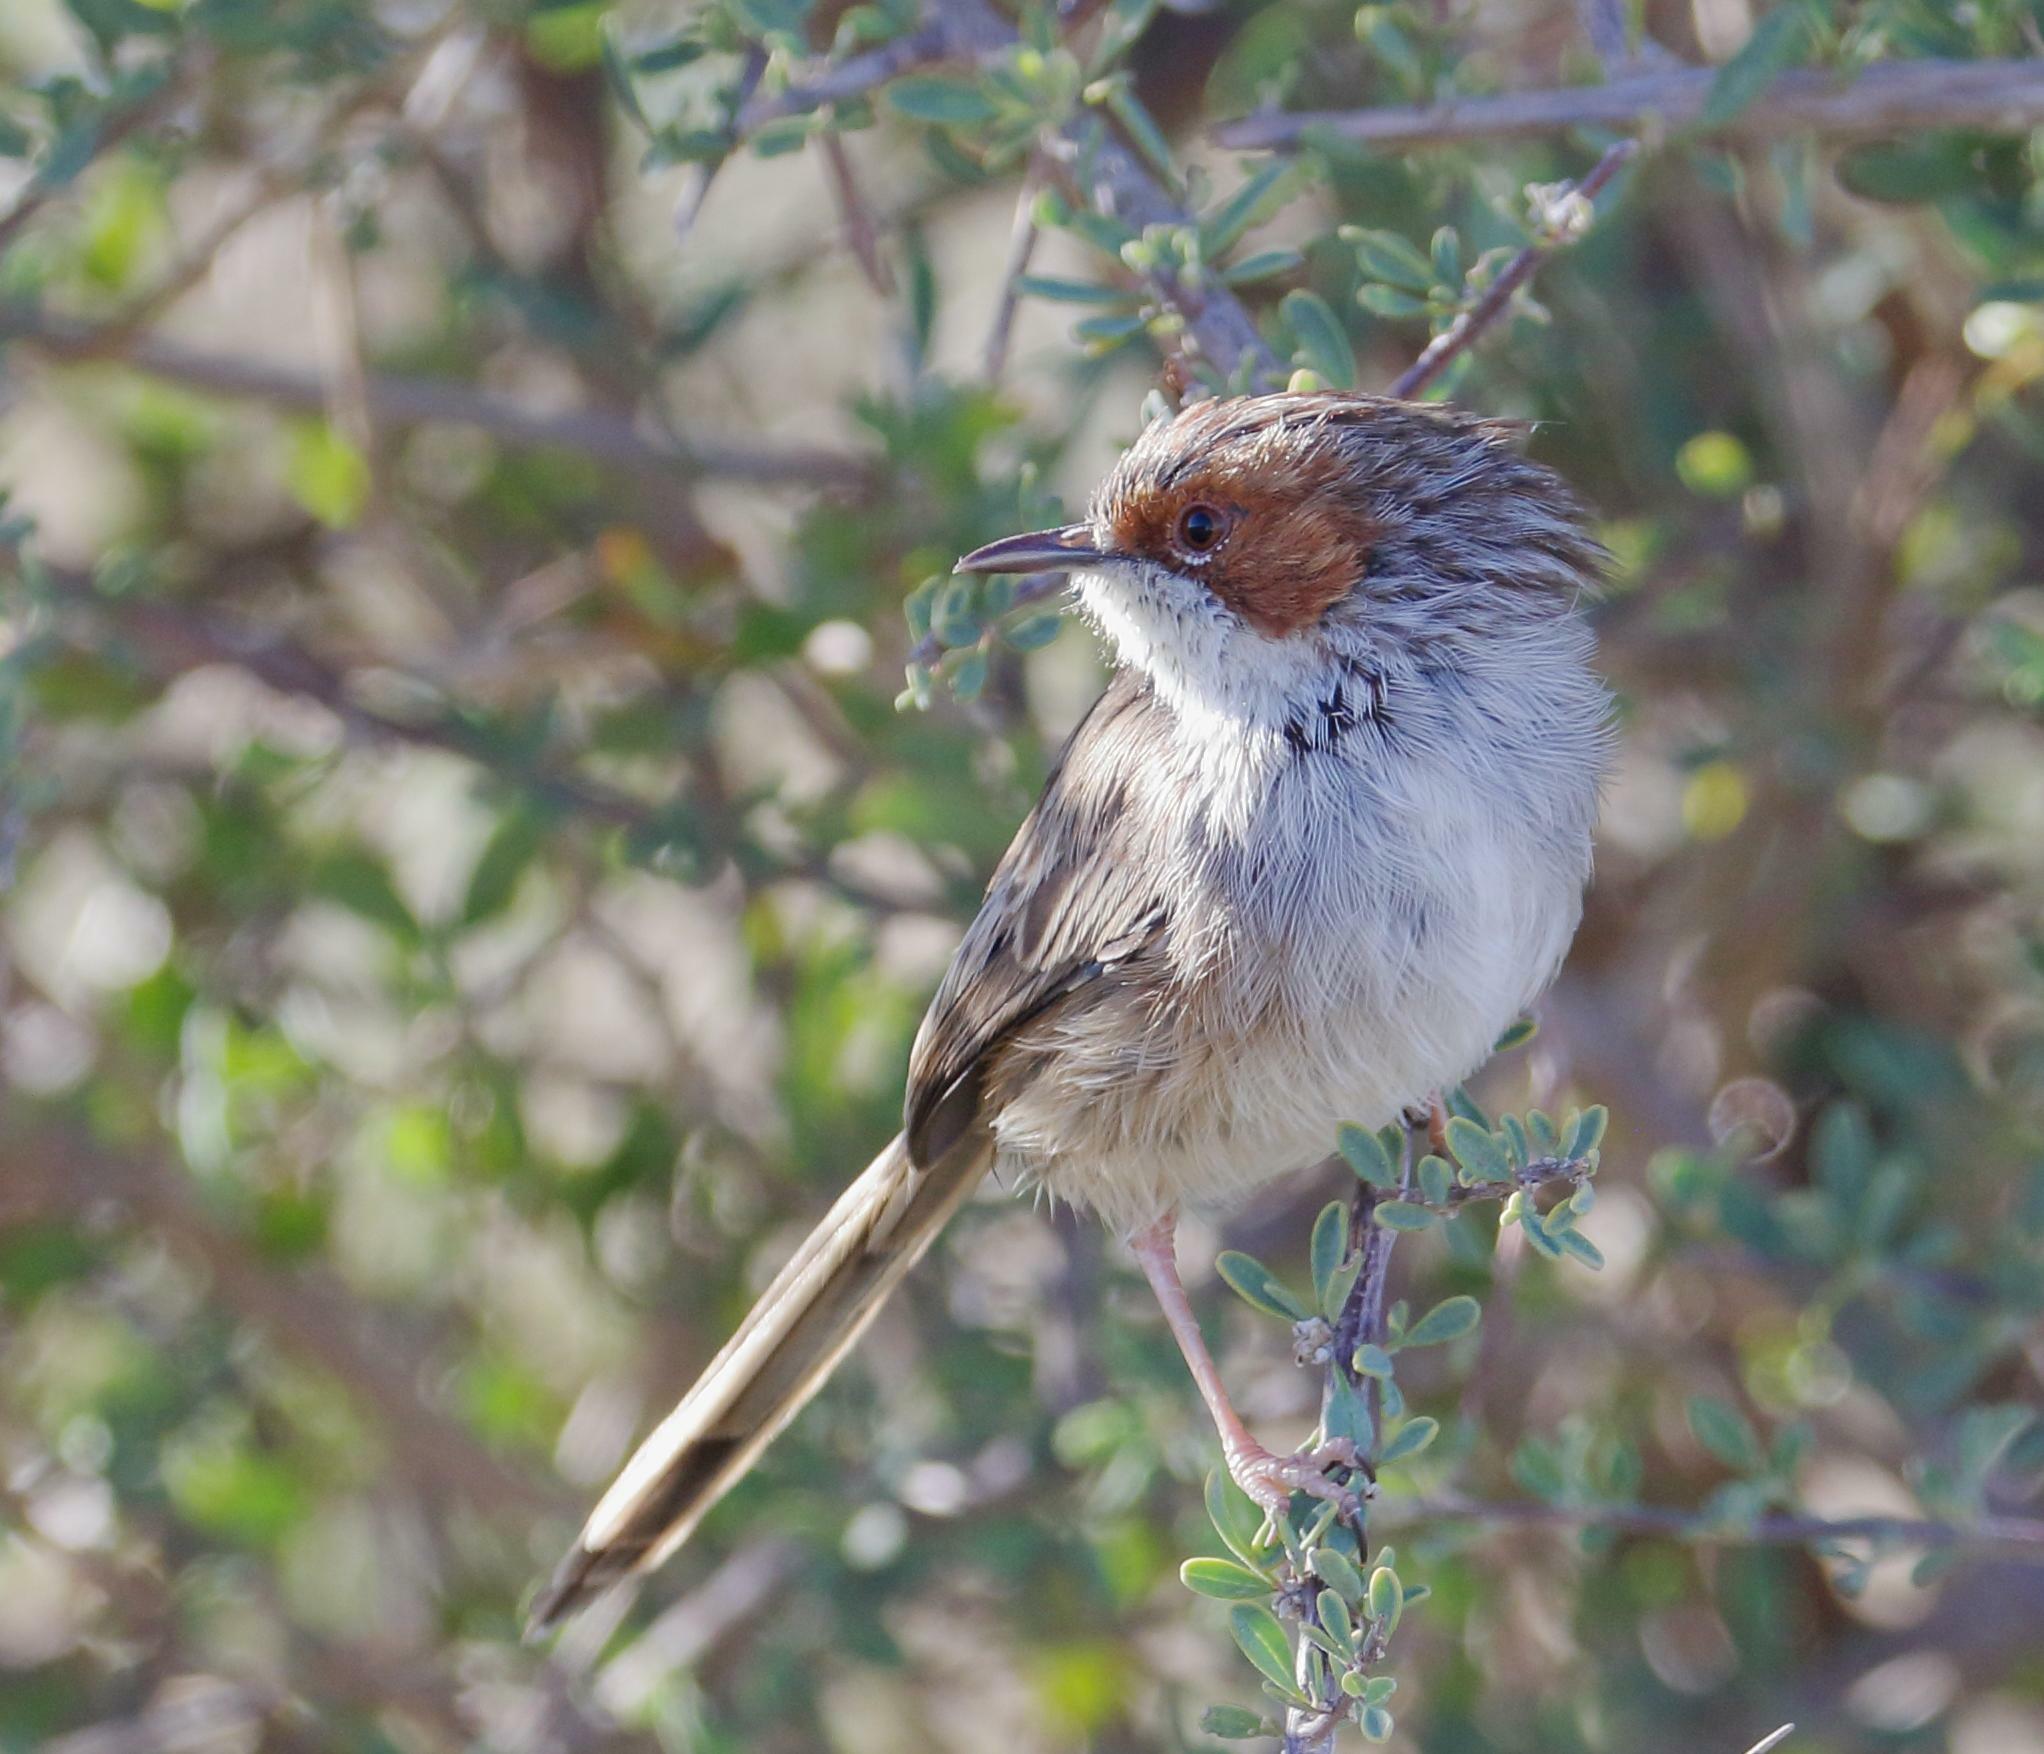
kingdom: Animalia
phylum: Chordata
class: Aves
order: Passeriformes
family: Cisticolidae
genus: Malcorus
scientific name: Malcorus pectoralis
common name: Rufous-eared warbler
